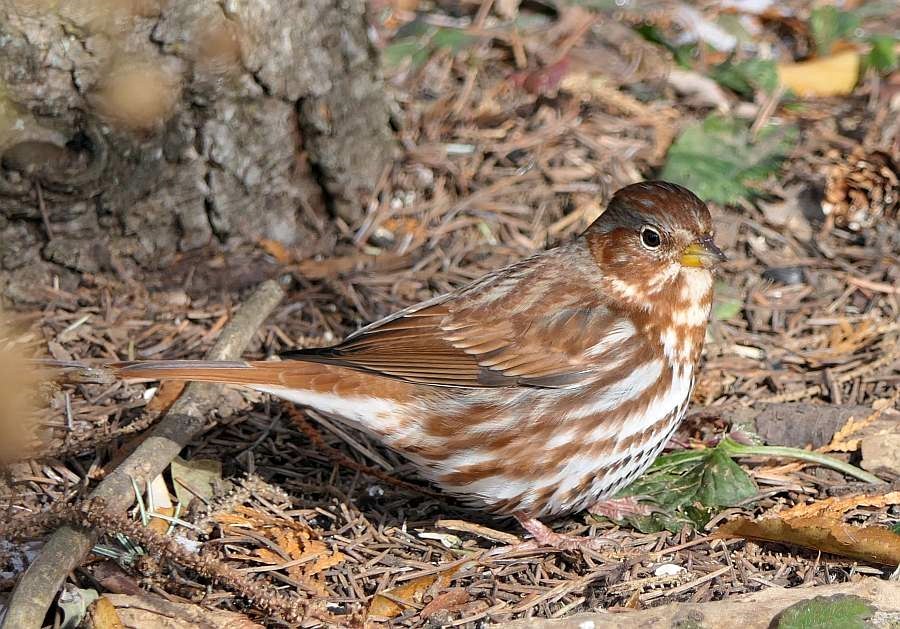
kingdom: Animalia
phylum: Chordata
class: Aves
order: Passeriformes
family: Passerellidae
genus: Passerella
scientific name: Passerella iliaca
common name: Fox sparrow
